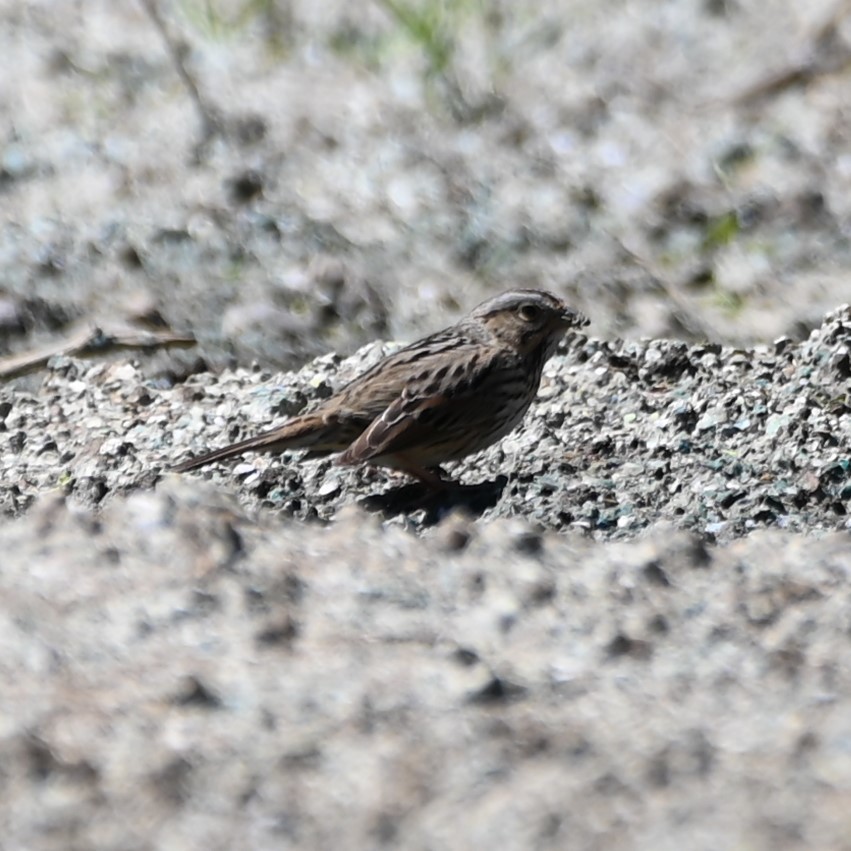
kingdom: Animalia
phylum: Chordata
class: Aves
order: Passeriformes
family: Passerellidae
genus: Melospiza
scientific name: Melospiza lincolnii
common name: Lincoln's sparrow
